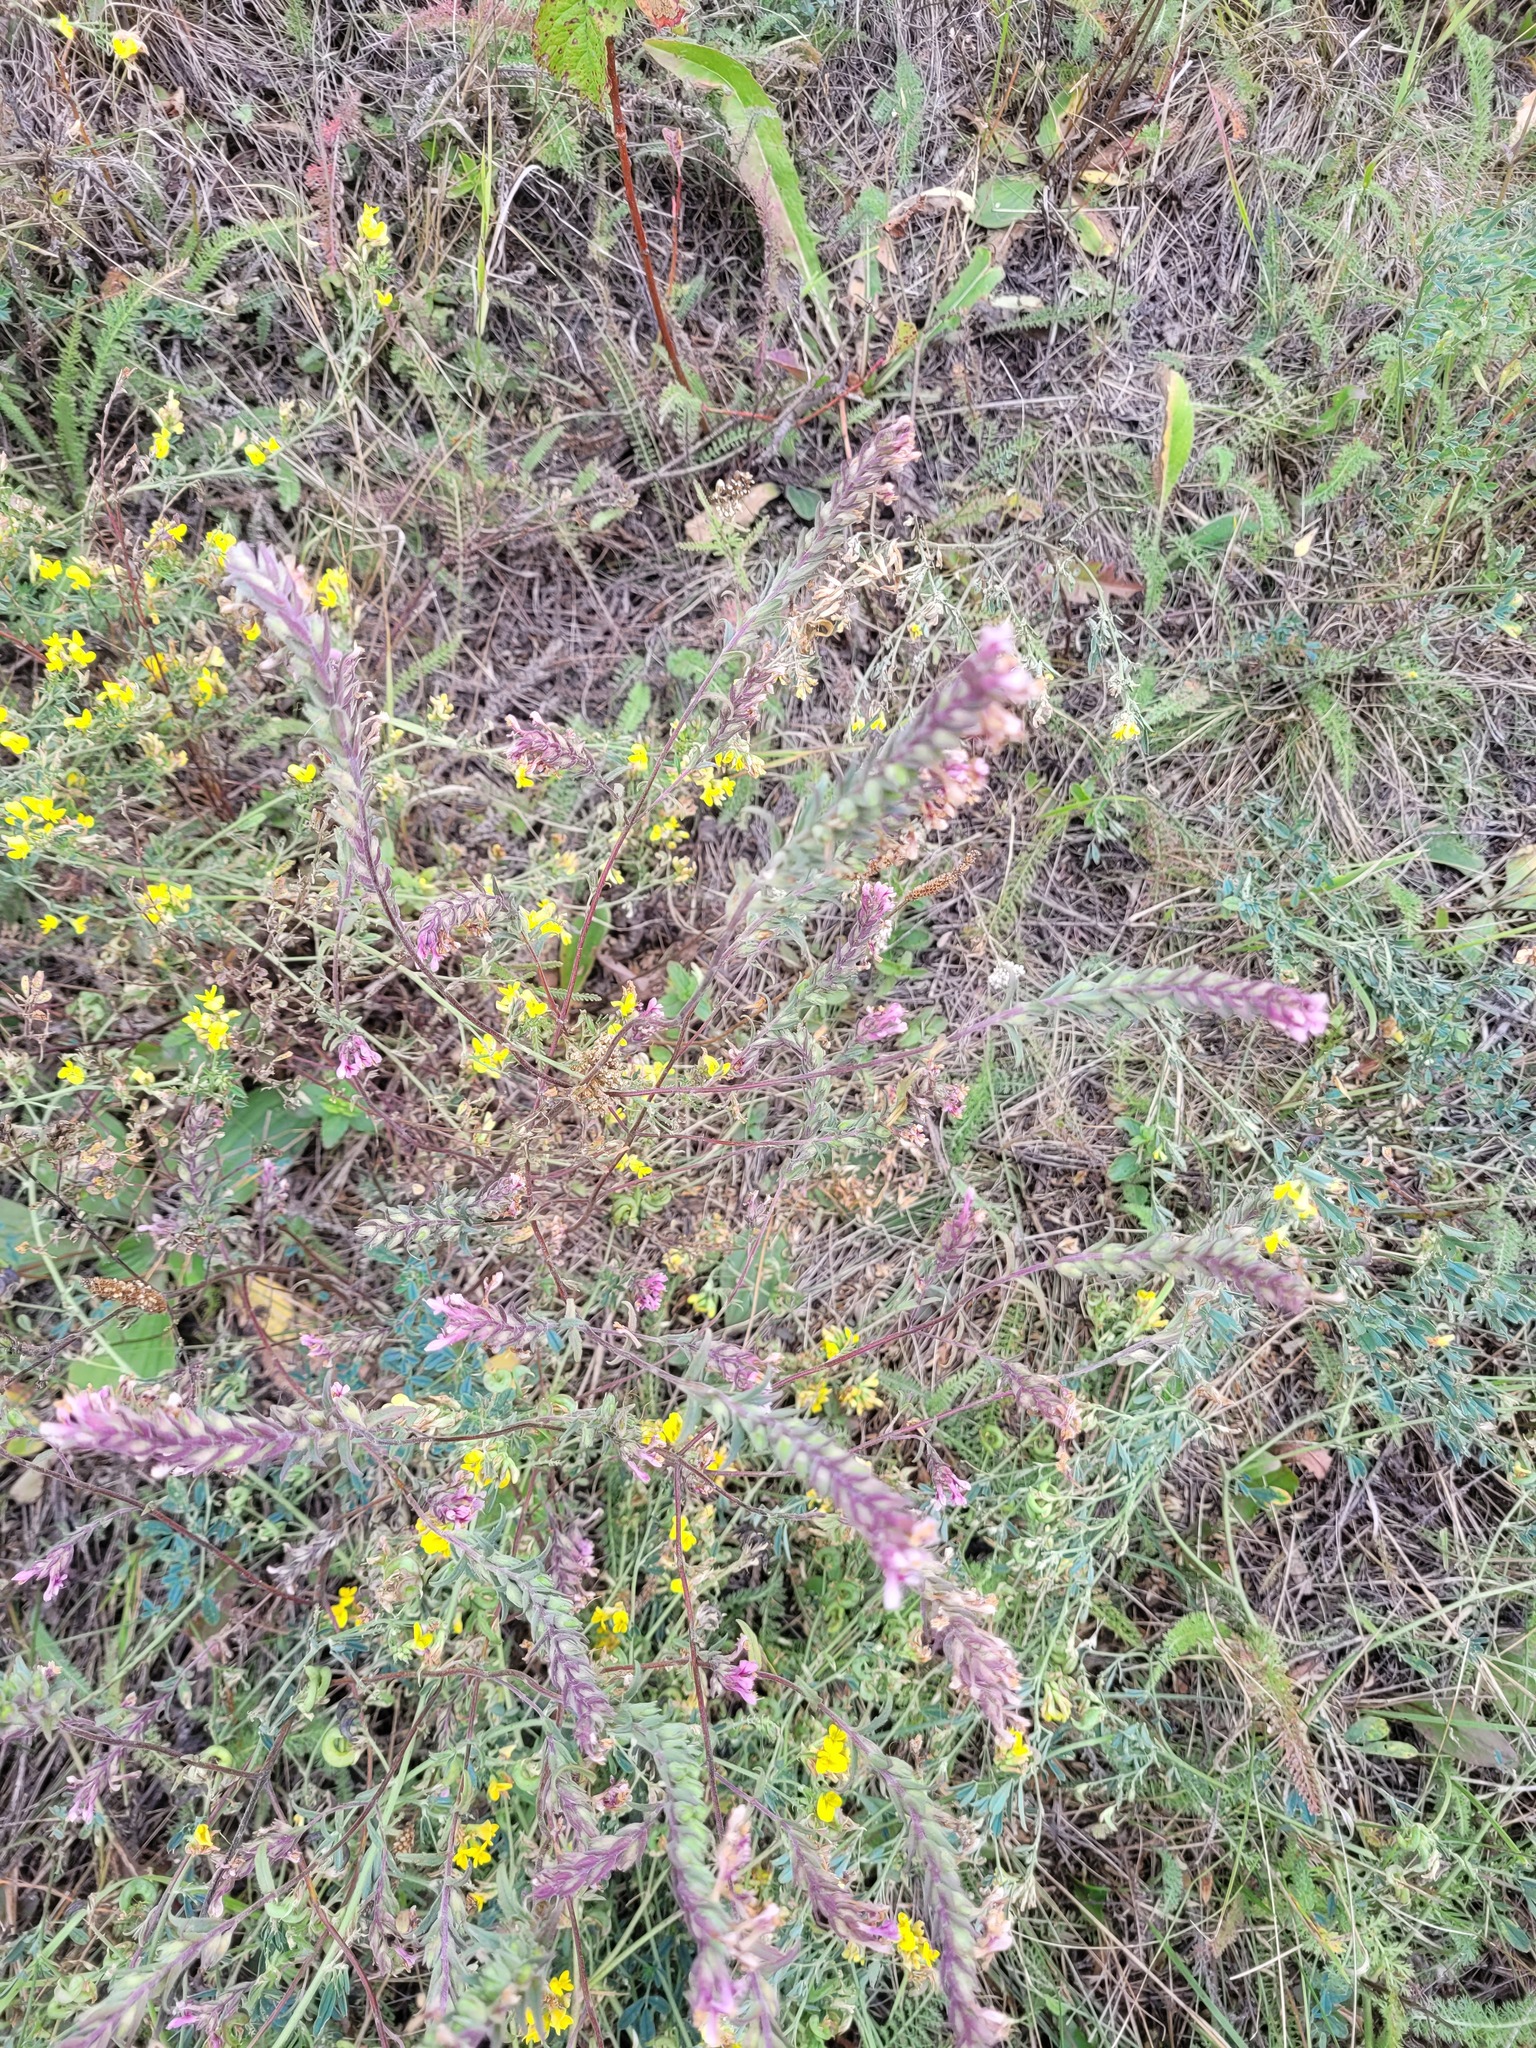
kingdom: Plantae
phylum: Tracheophyta
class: Magnoliopsida
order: Lamiales
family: Orobanchaceae
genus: Odontites
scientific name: Odontites vulgaris
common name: Broomrape
